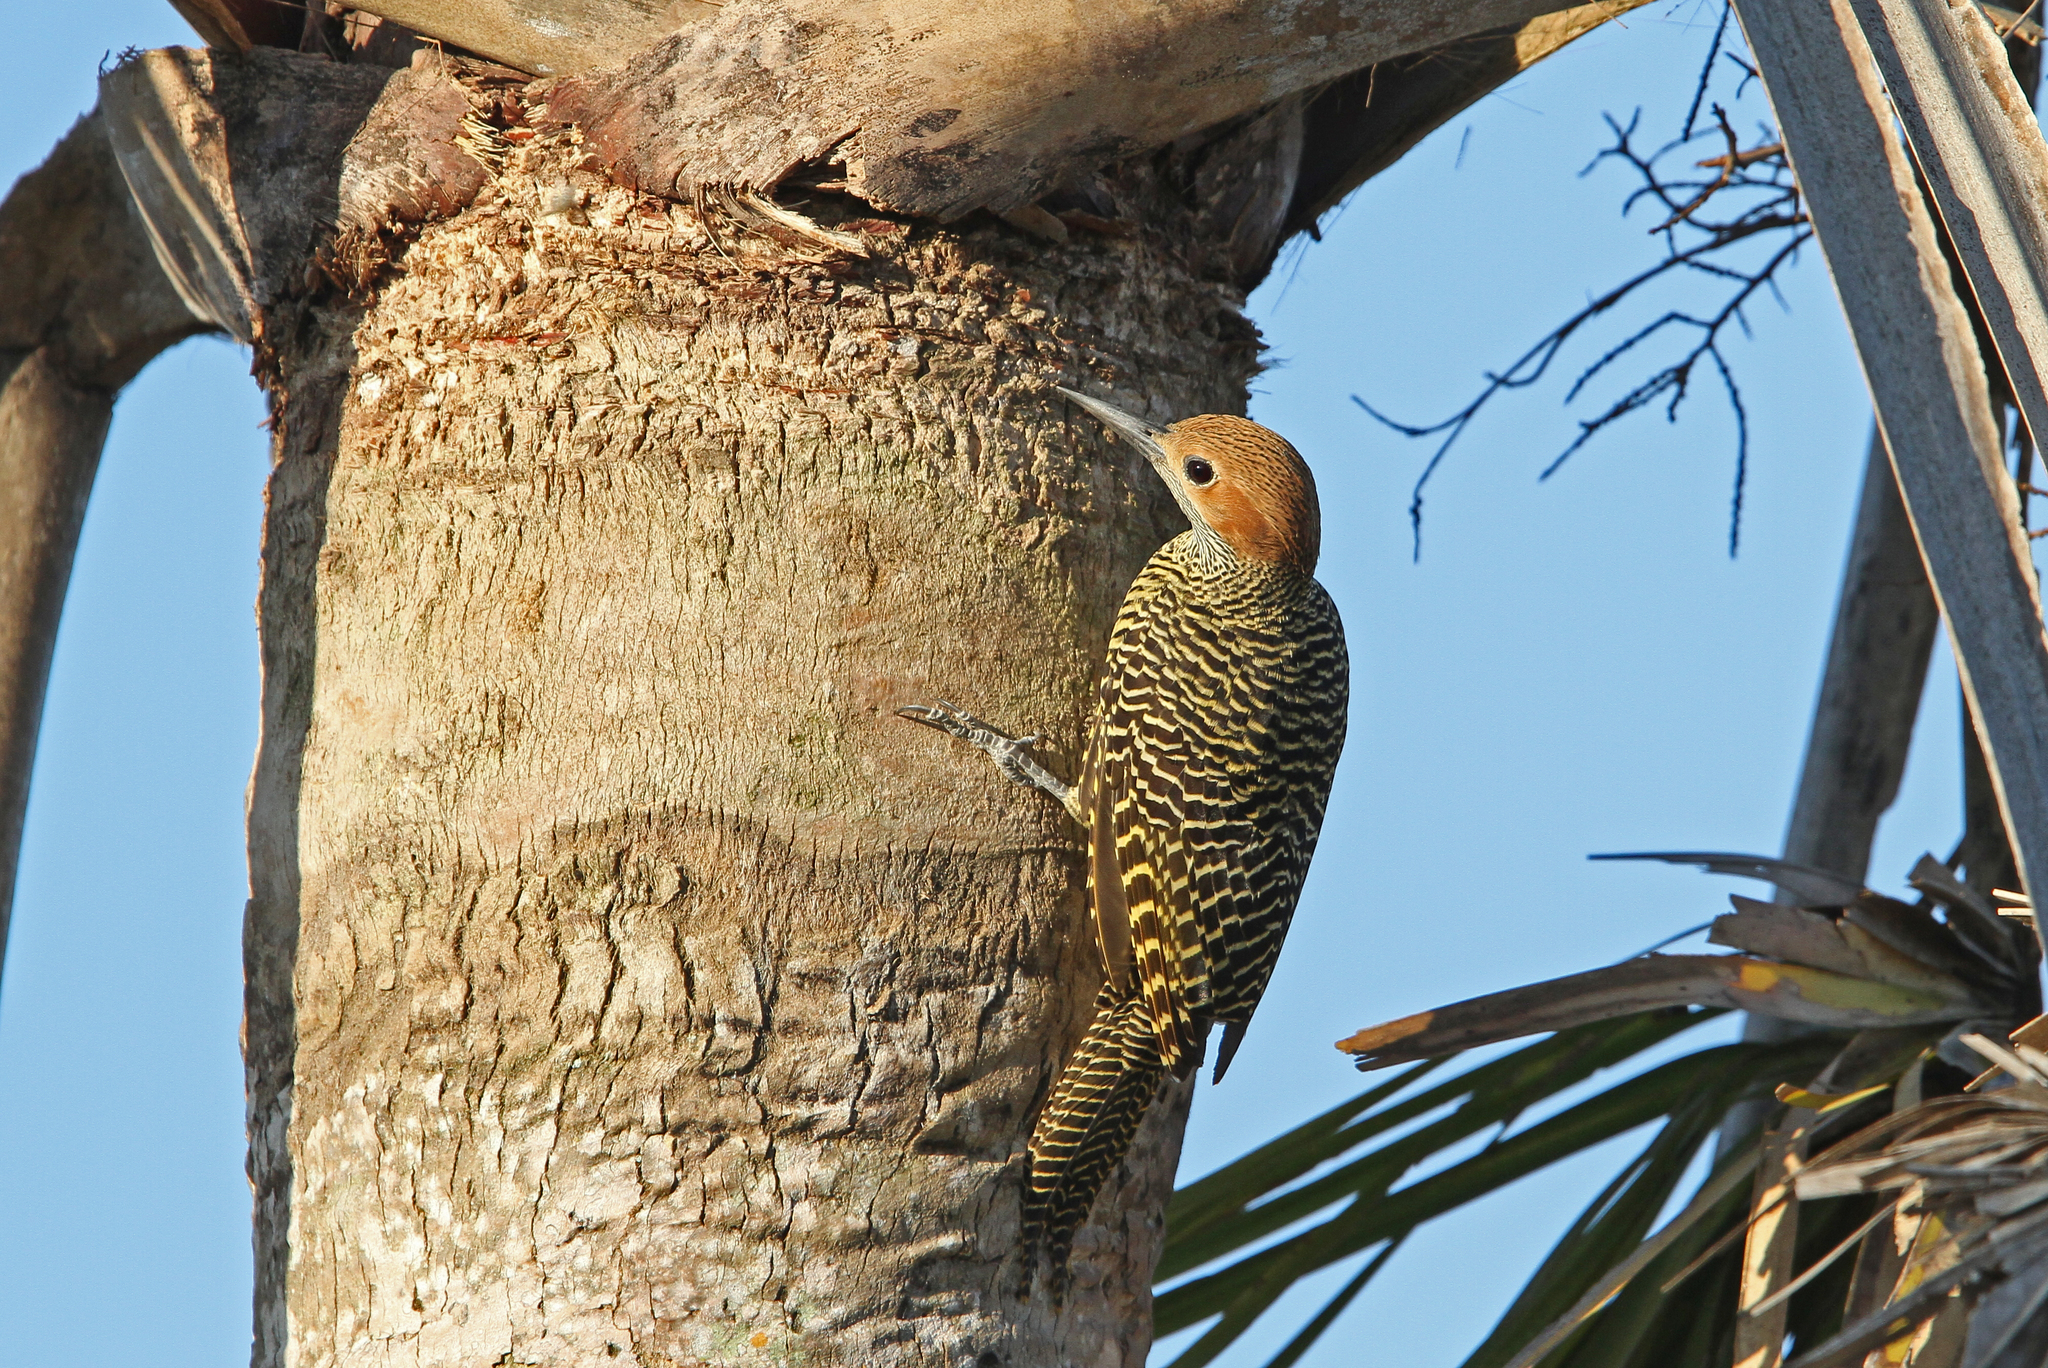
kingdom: Animalia
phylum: Chordata
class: Aves
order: Piciformes
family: Picidae
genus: Colaptes
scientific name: Colaptes fernandinae
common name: Fernandina's flicker
